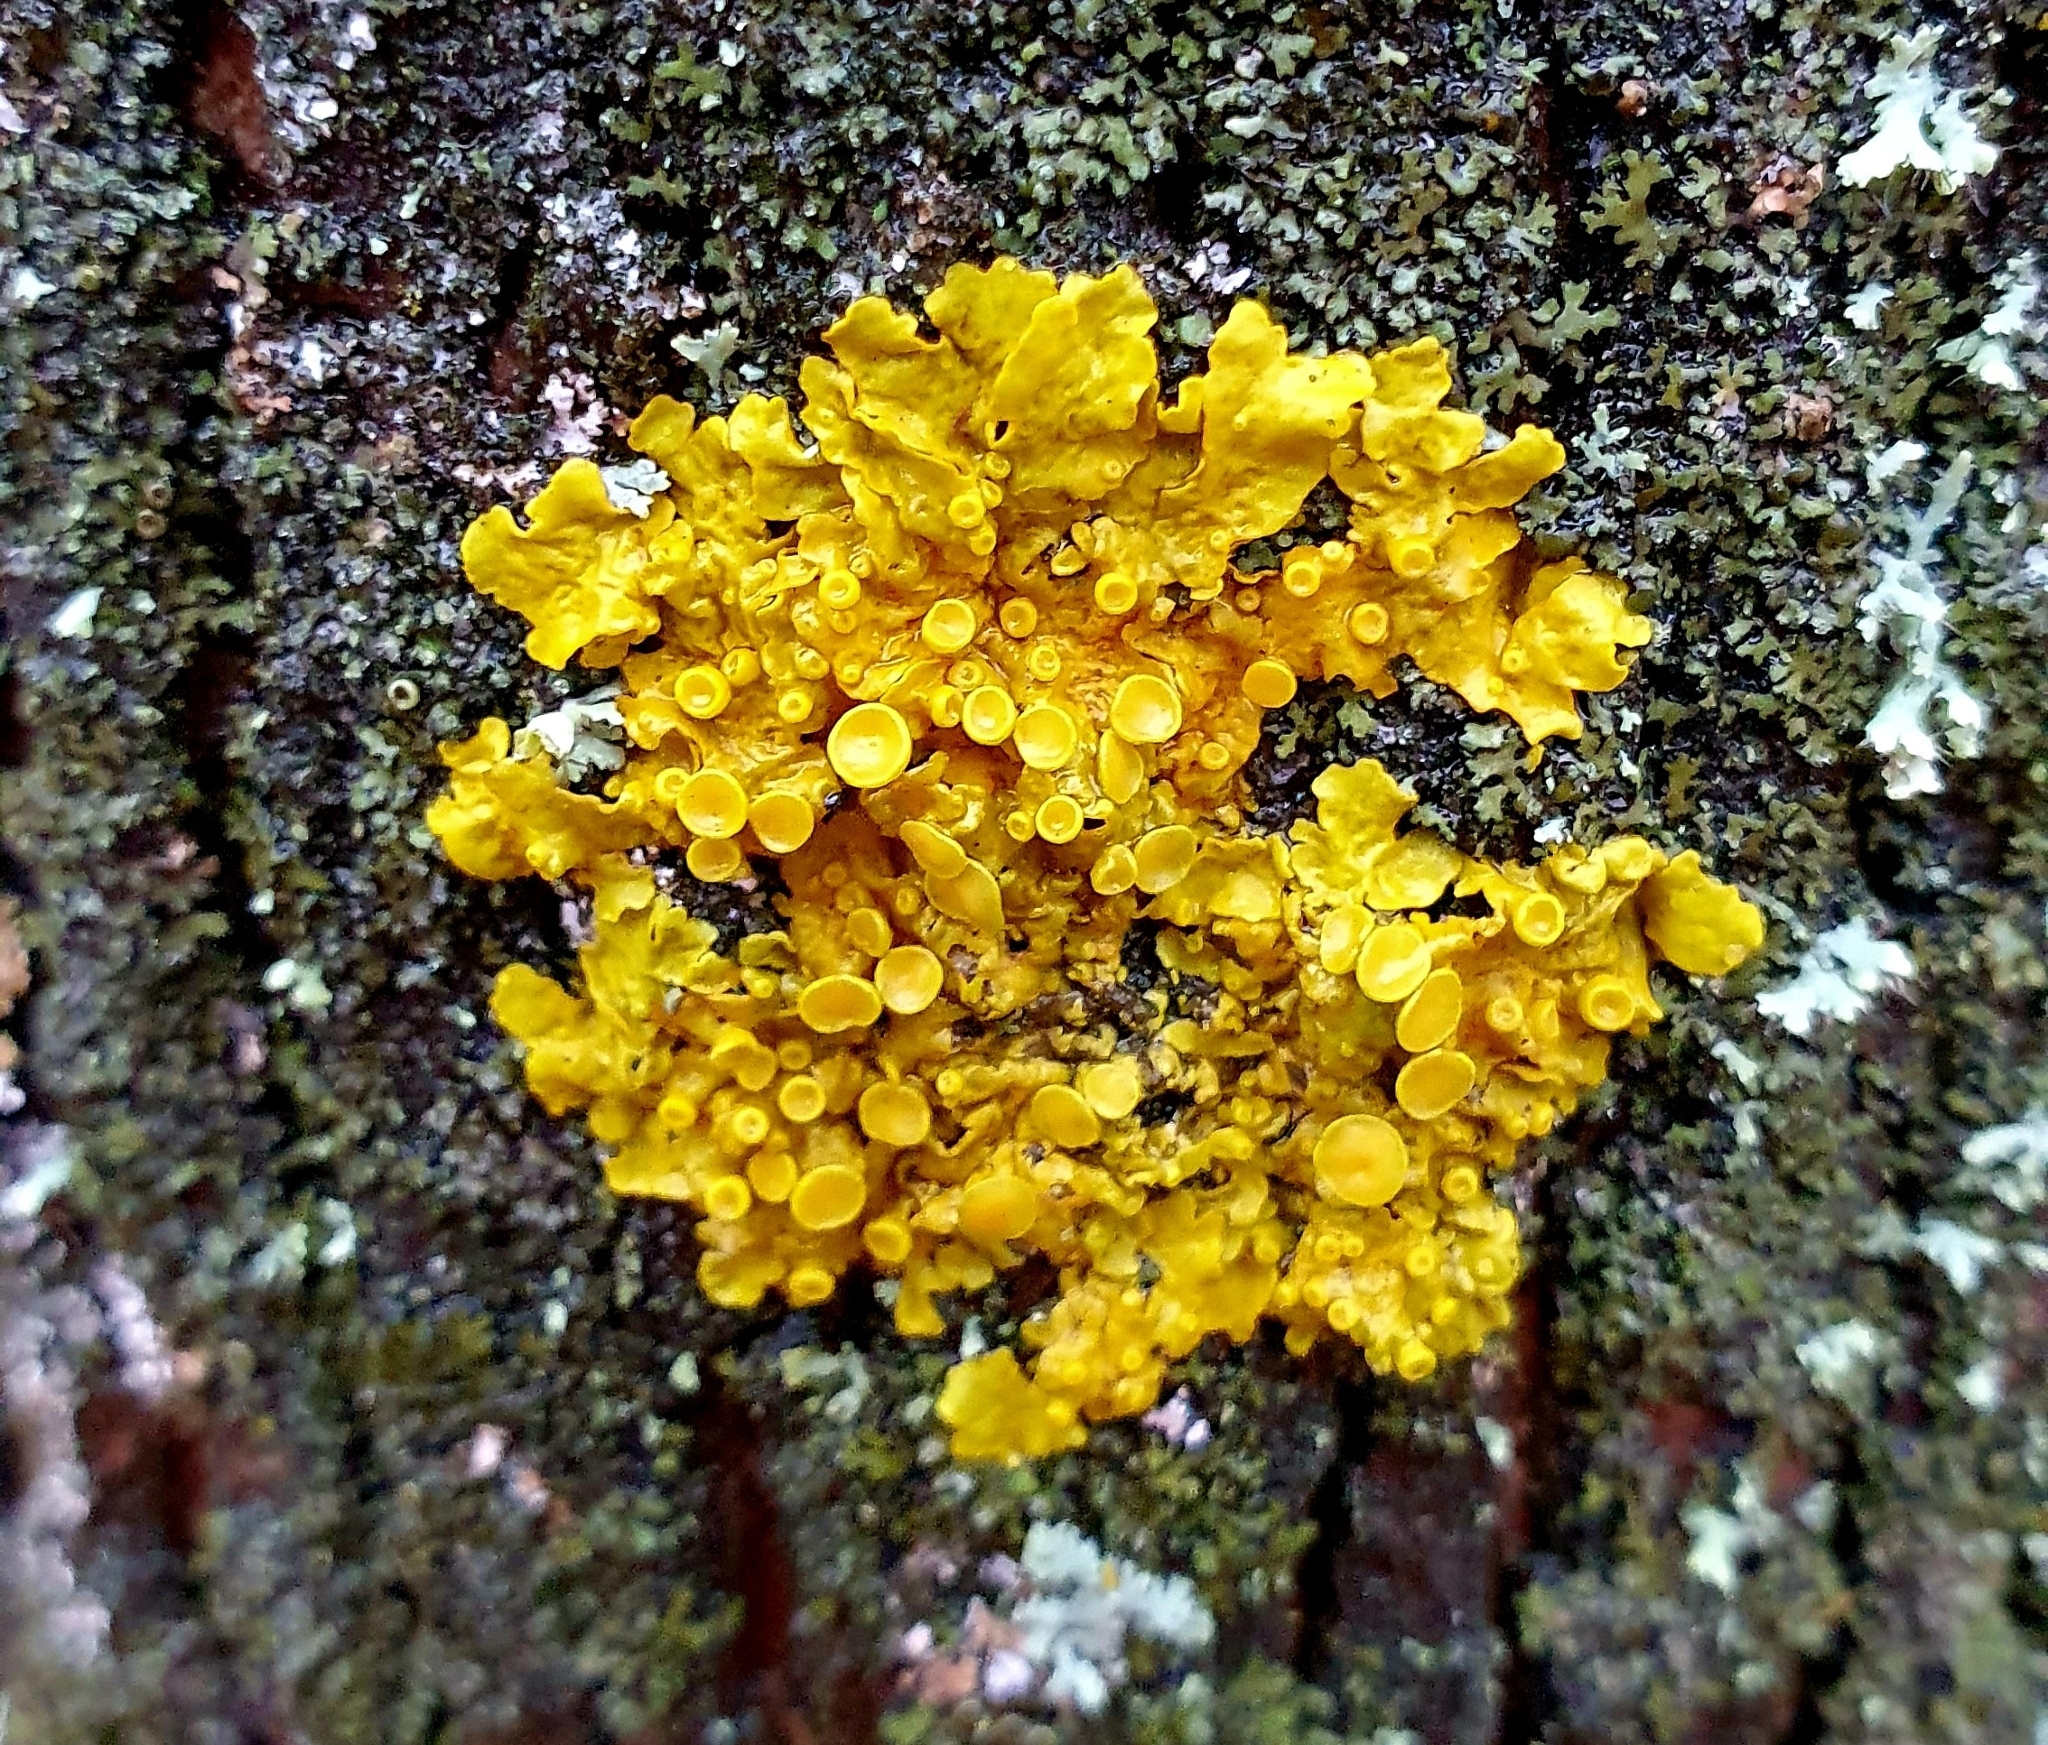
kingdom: Fungi
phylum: Ascomycota
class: Lecanoromycetes
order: Teloschistales
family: Teloschistaceae
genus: Xanthoria
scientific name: Xanthoria parietina
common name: Common orange lichen
